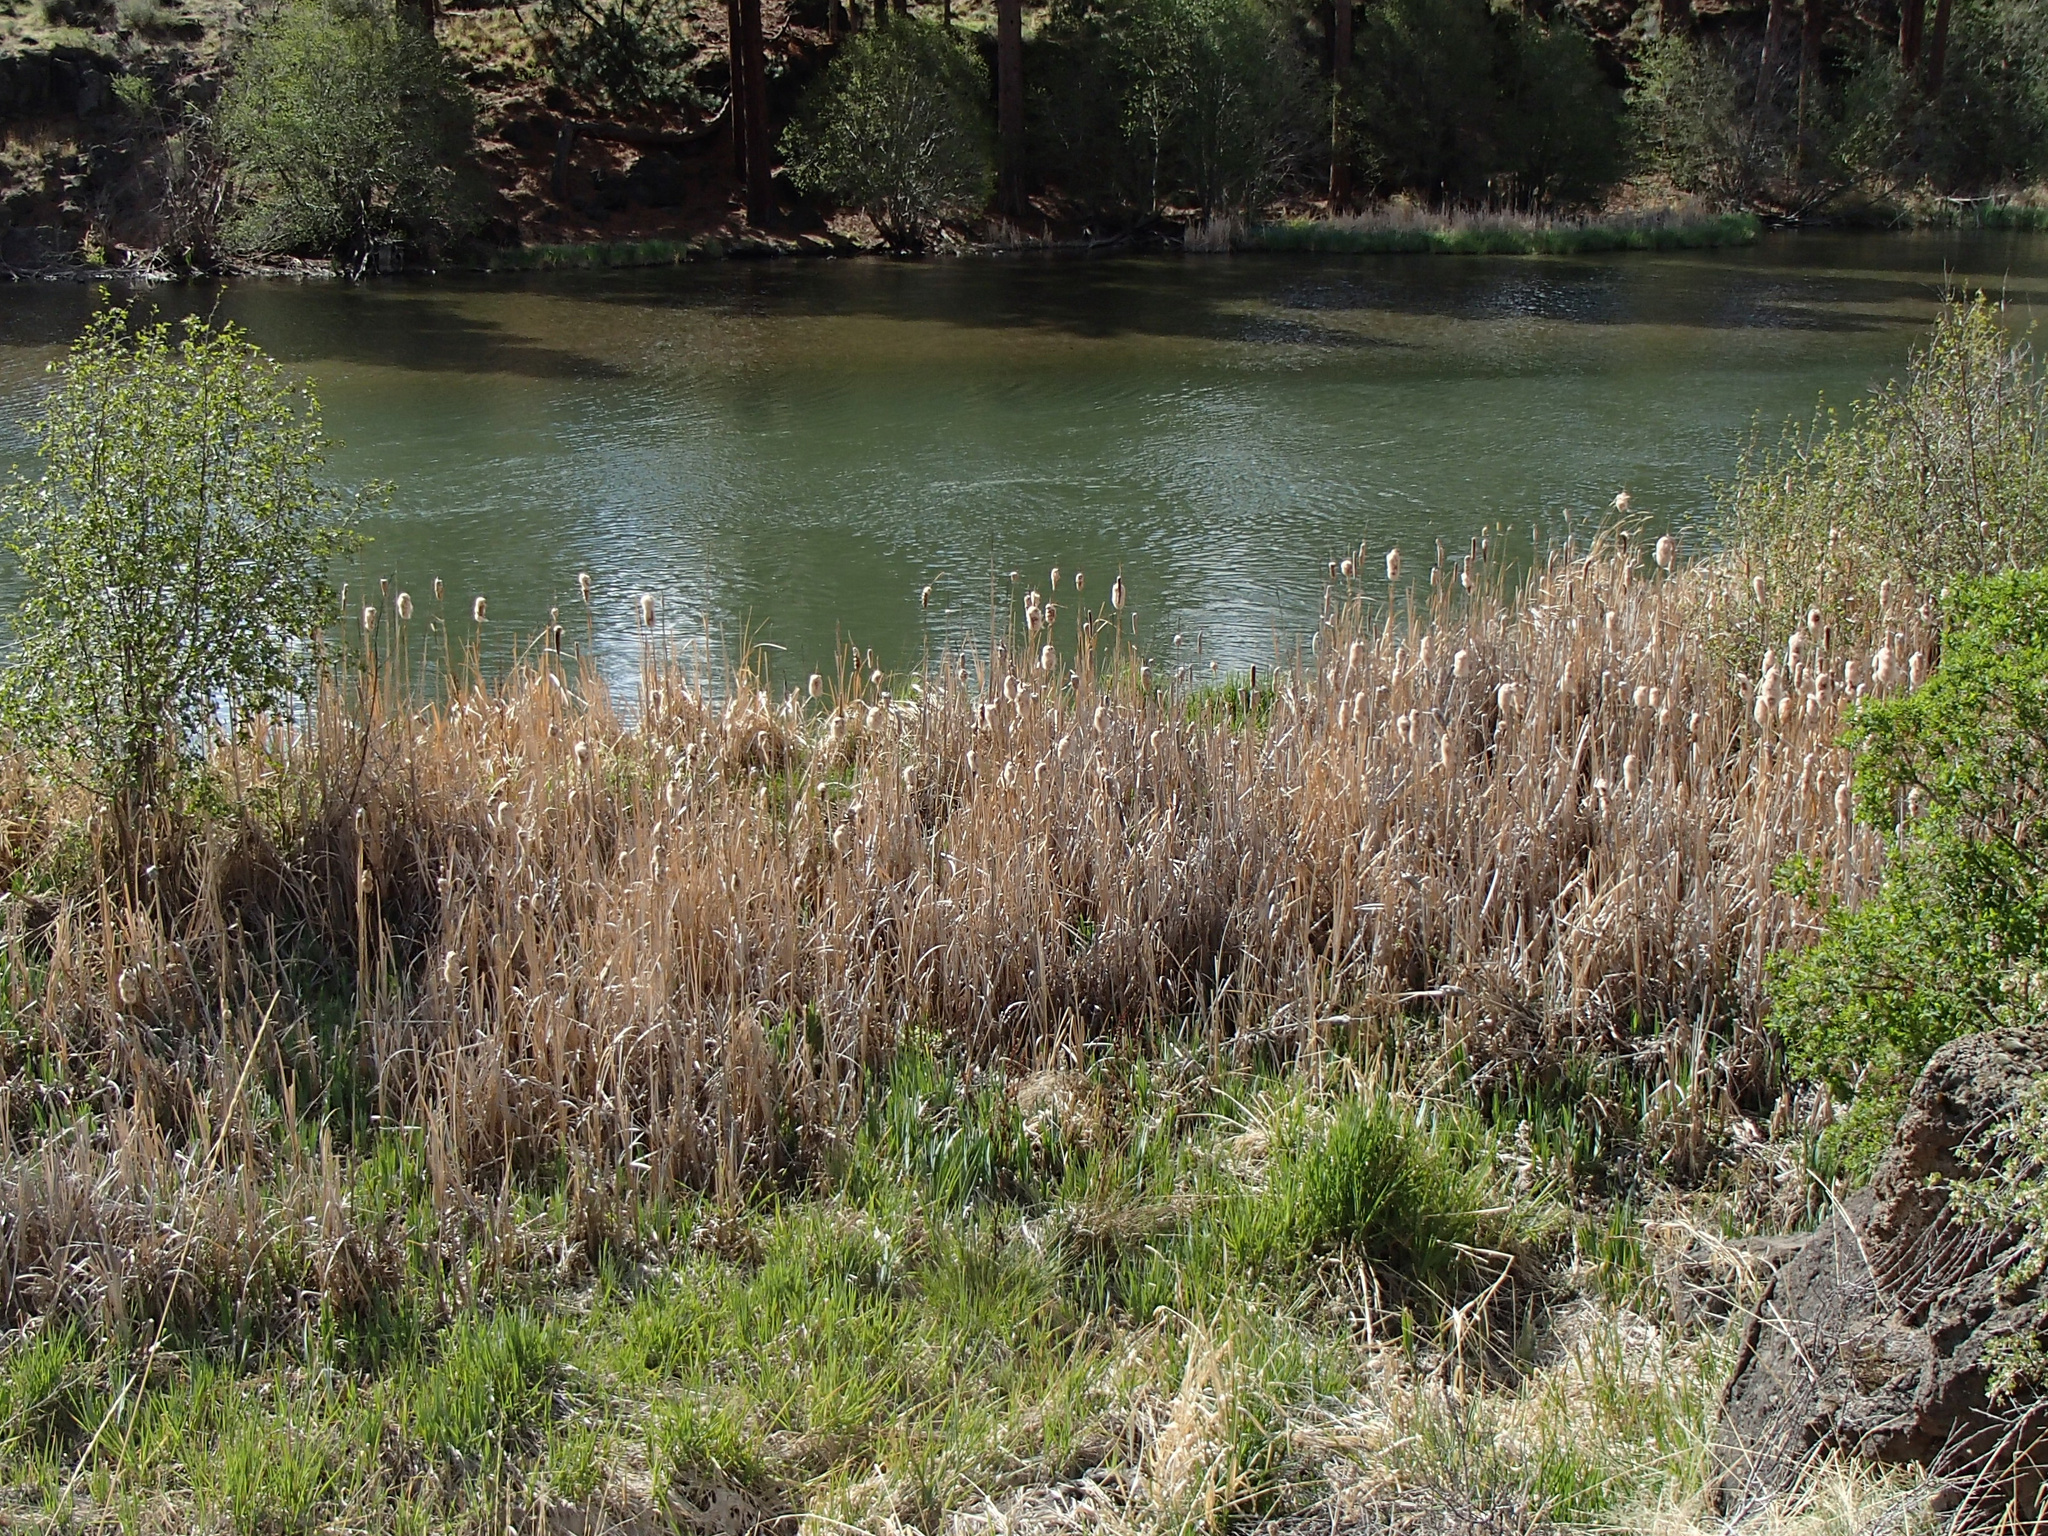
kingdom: Plantae
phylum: Tracheophyta
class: Liliopsida
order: Poales
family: Typhaceae
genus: Typha
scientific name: Typha latifolia
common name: Broadleaf cattail
